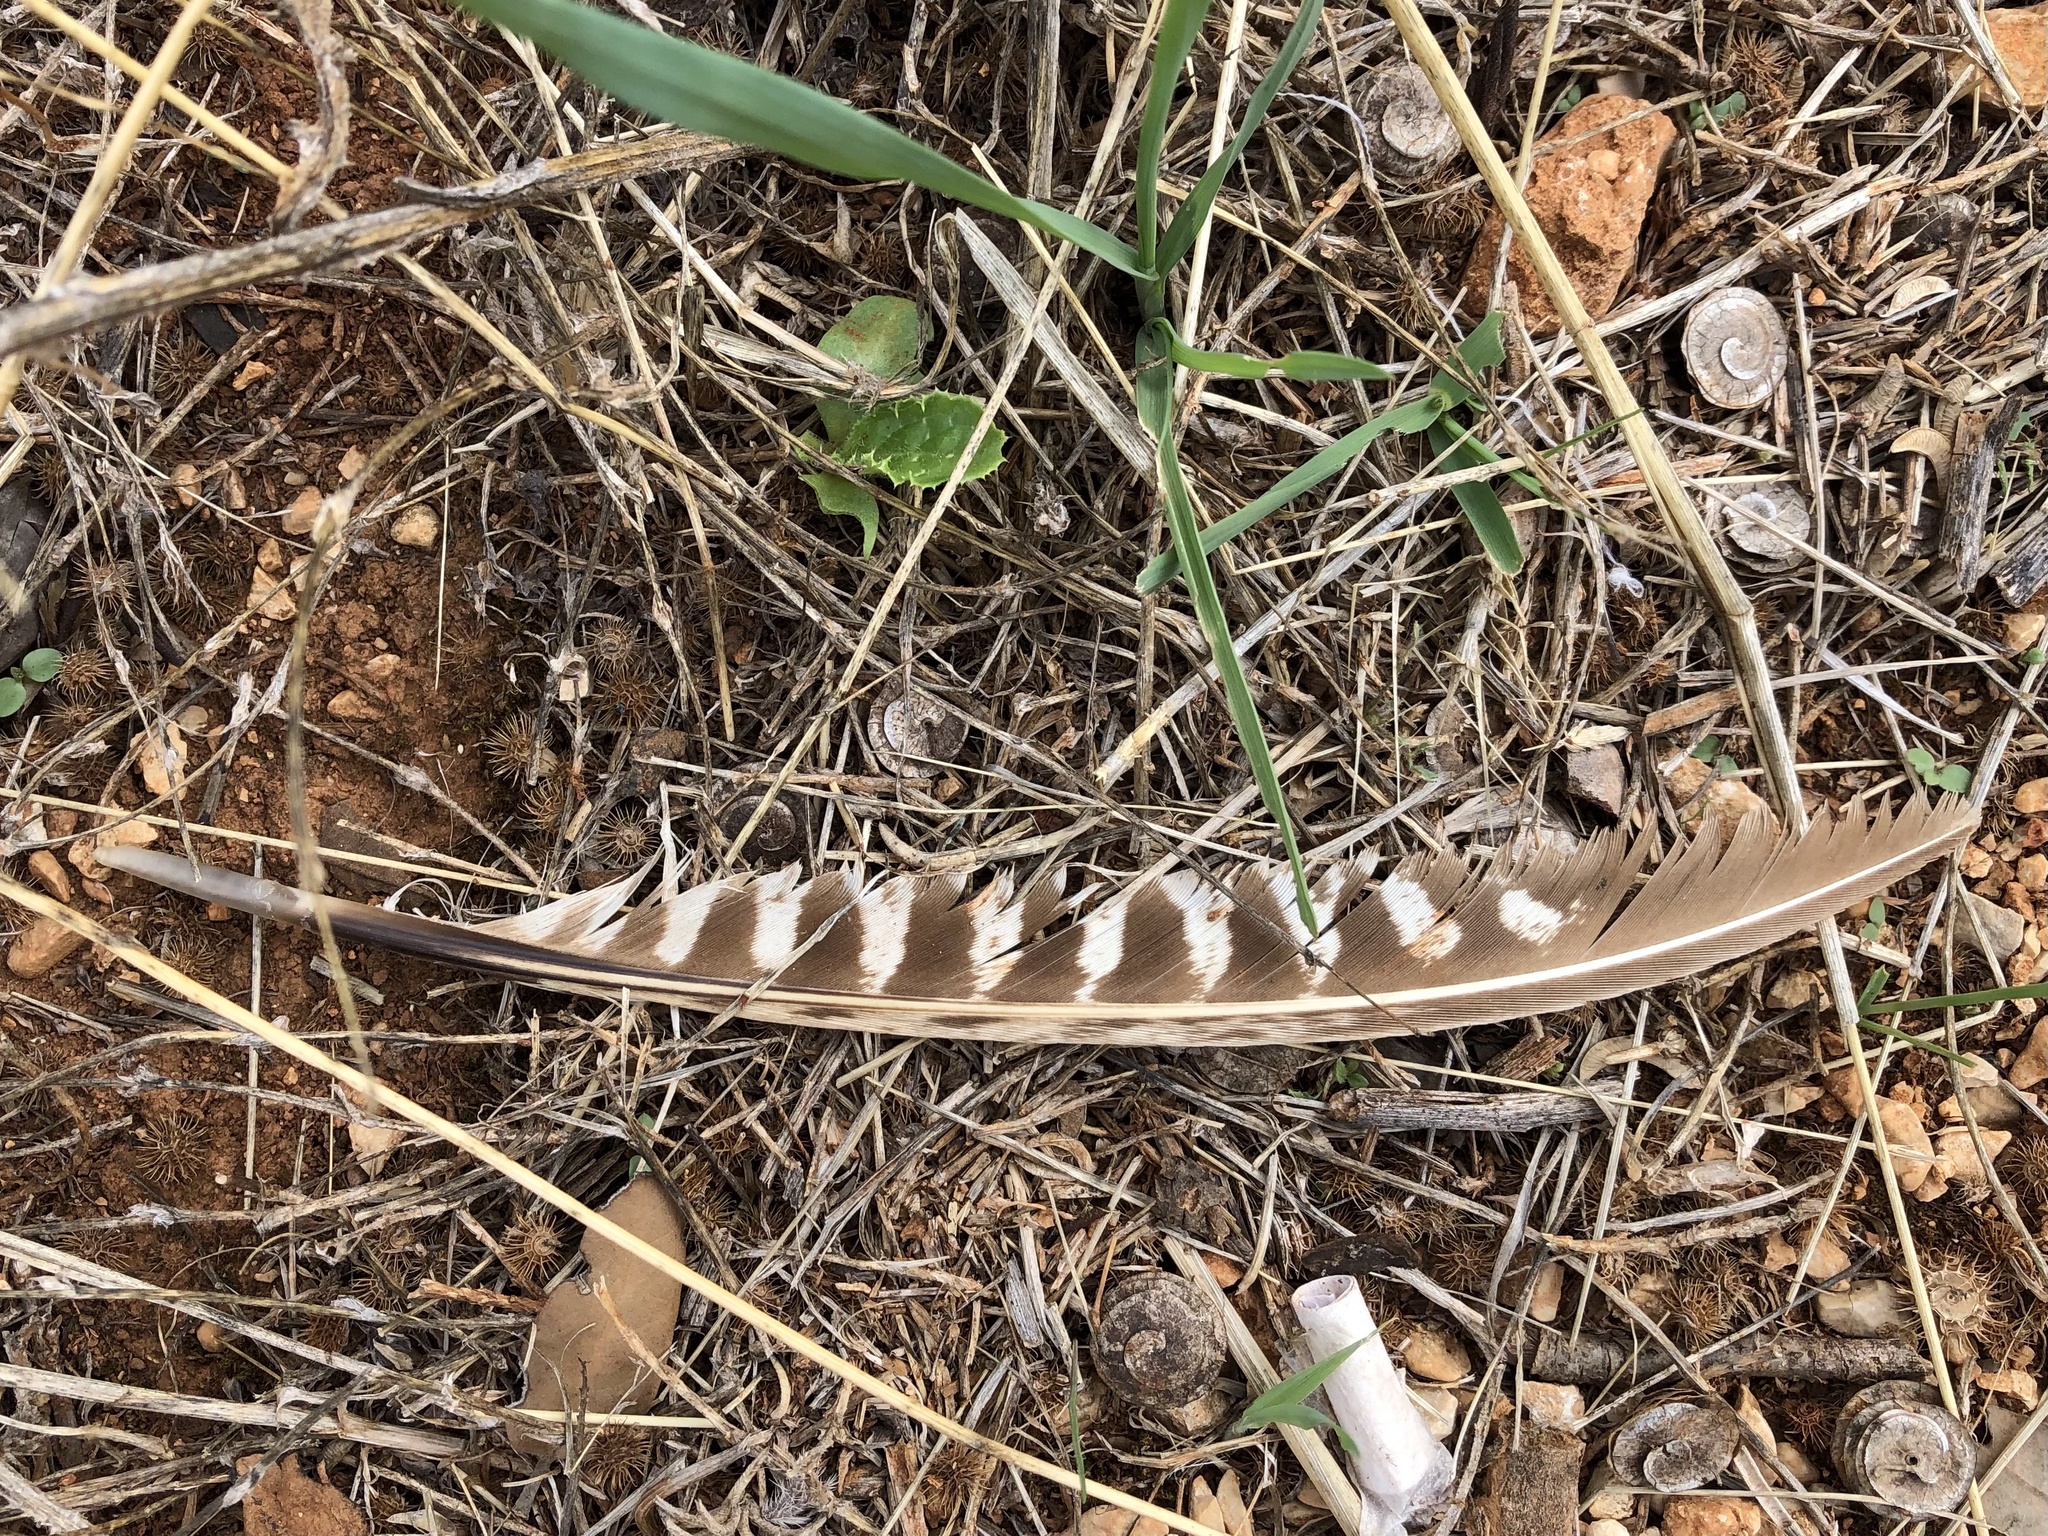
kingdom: Animalia
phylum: Chordata
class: Aves
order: Galliformes
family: Phasianidae
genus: Phasianus
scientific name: Phasianus colchicus
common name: Common pheasant
